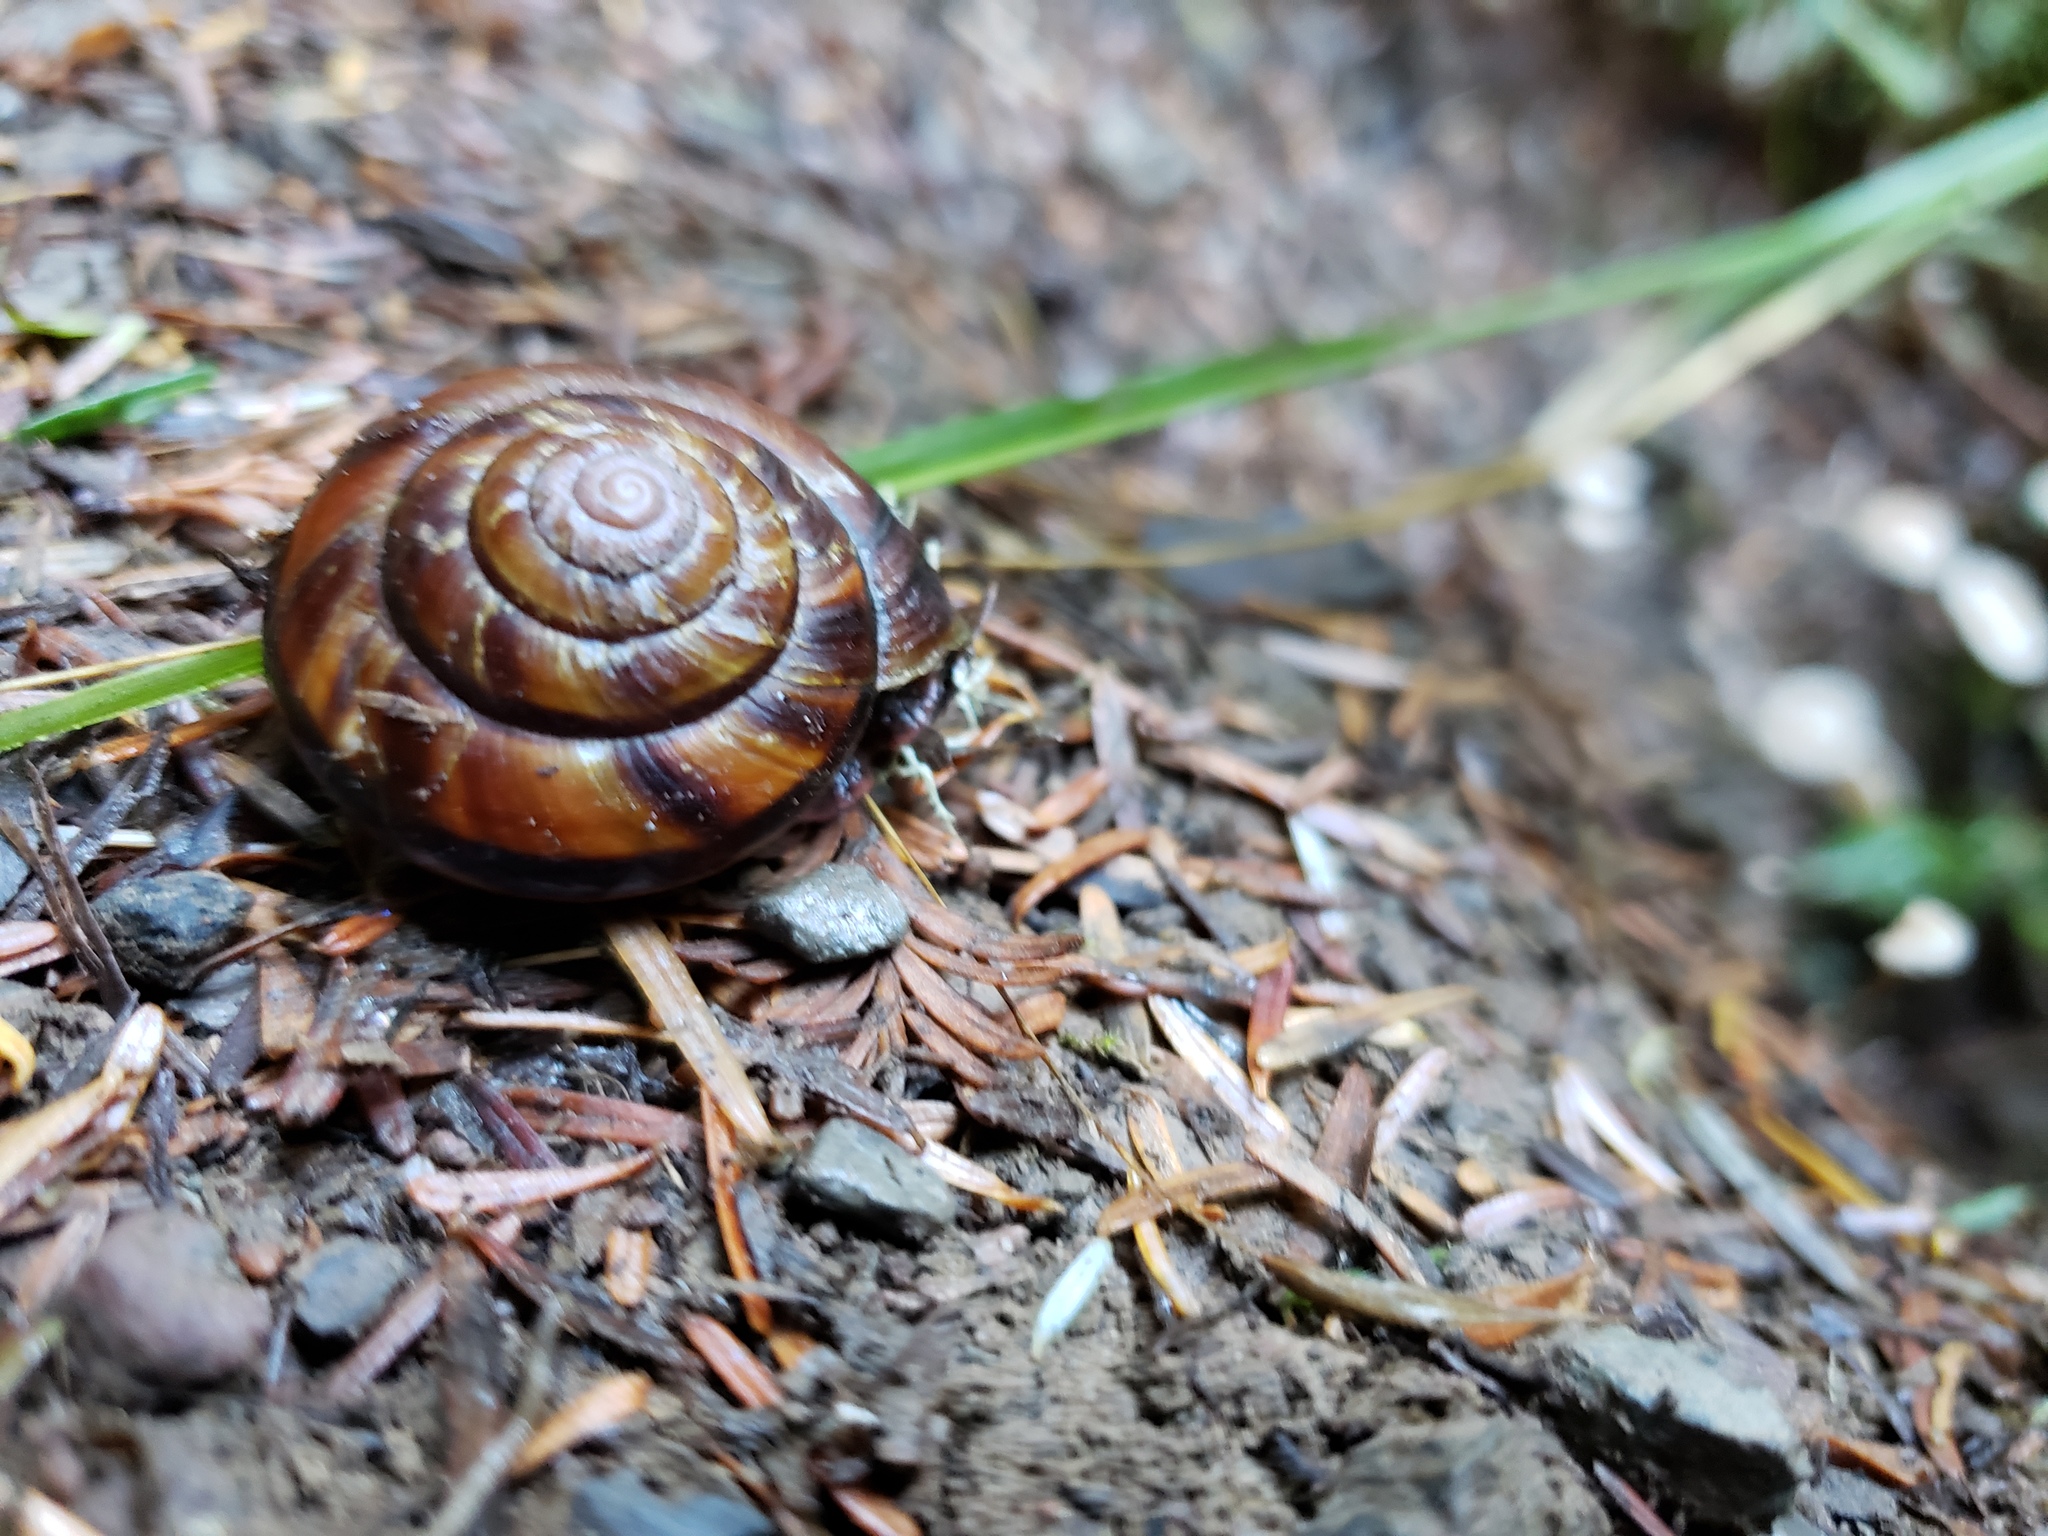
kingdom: Animalia
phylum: Mollusca
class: Gastropoda
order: Stylommatophora
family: Xanthonychidae
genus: Monadenia
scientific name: Monadenia fidelis
